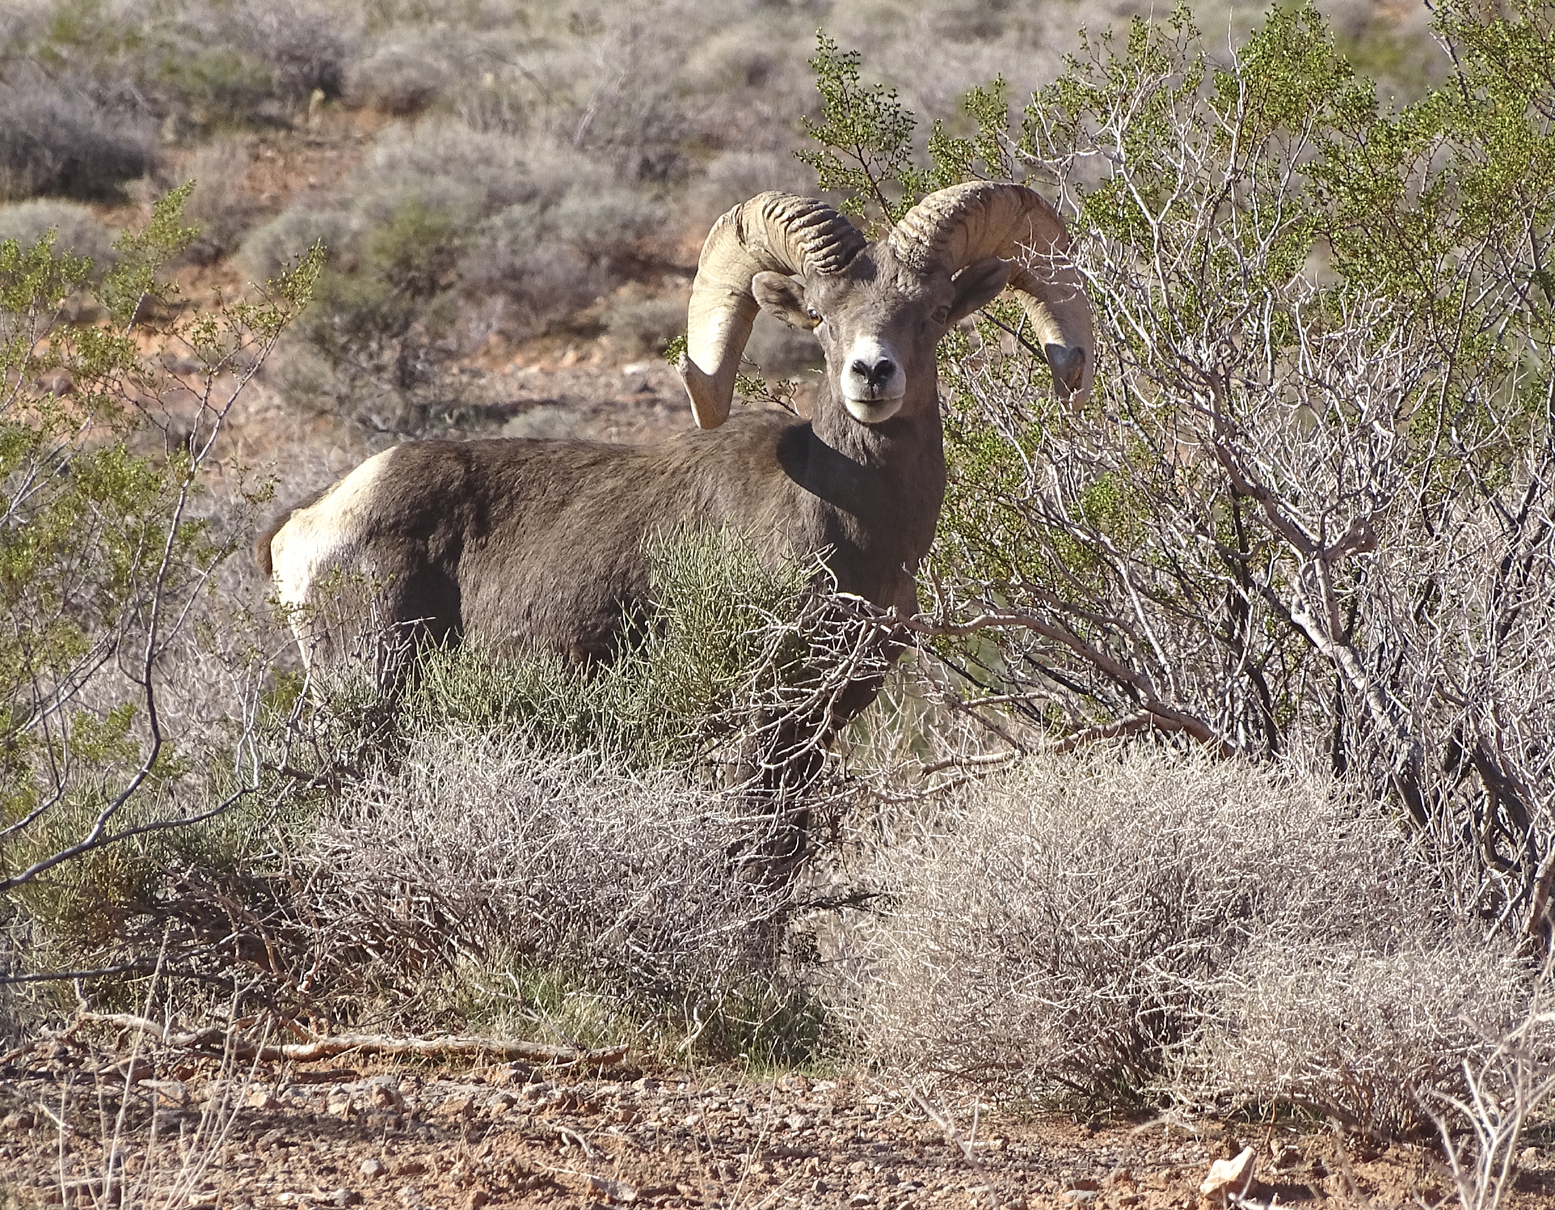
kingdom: Animalia
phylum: Chordata
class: Mammalia
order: Artiodactyla
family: Bovidae
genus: Ovis
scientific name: Ovis canadensis
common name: Bighorn sheep
